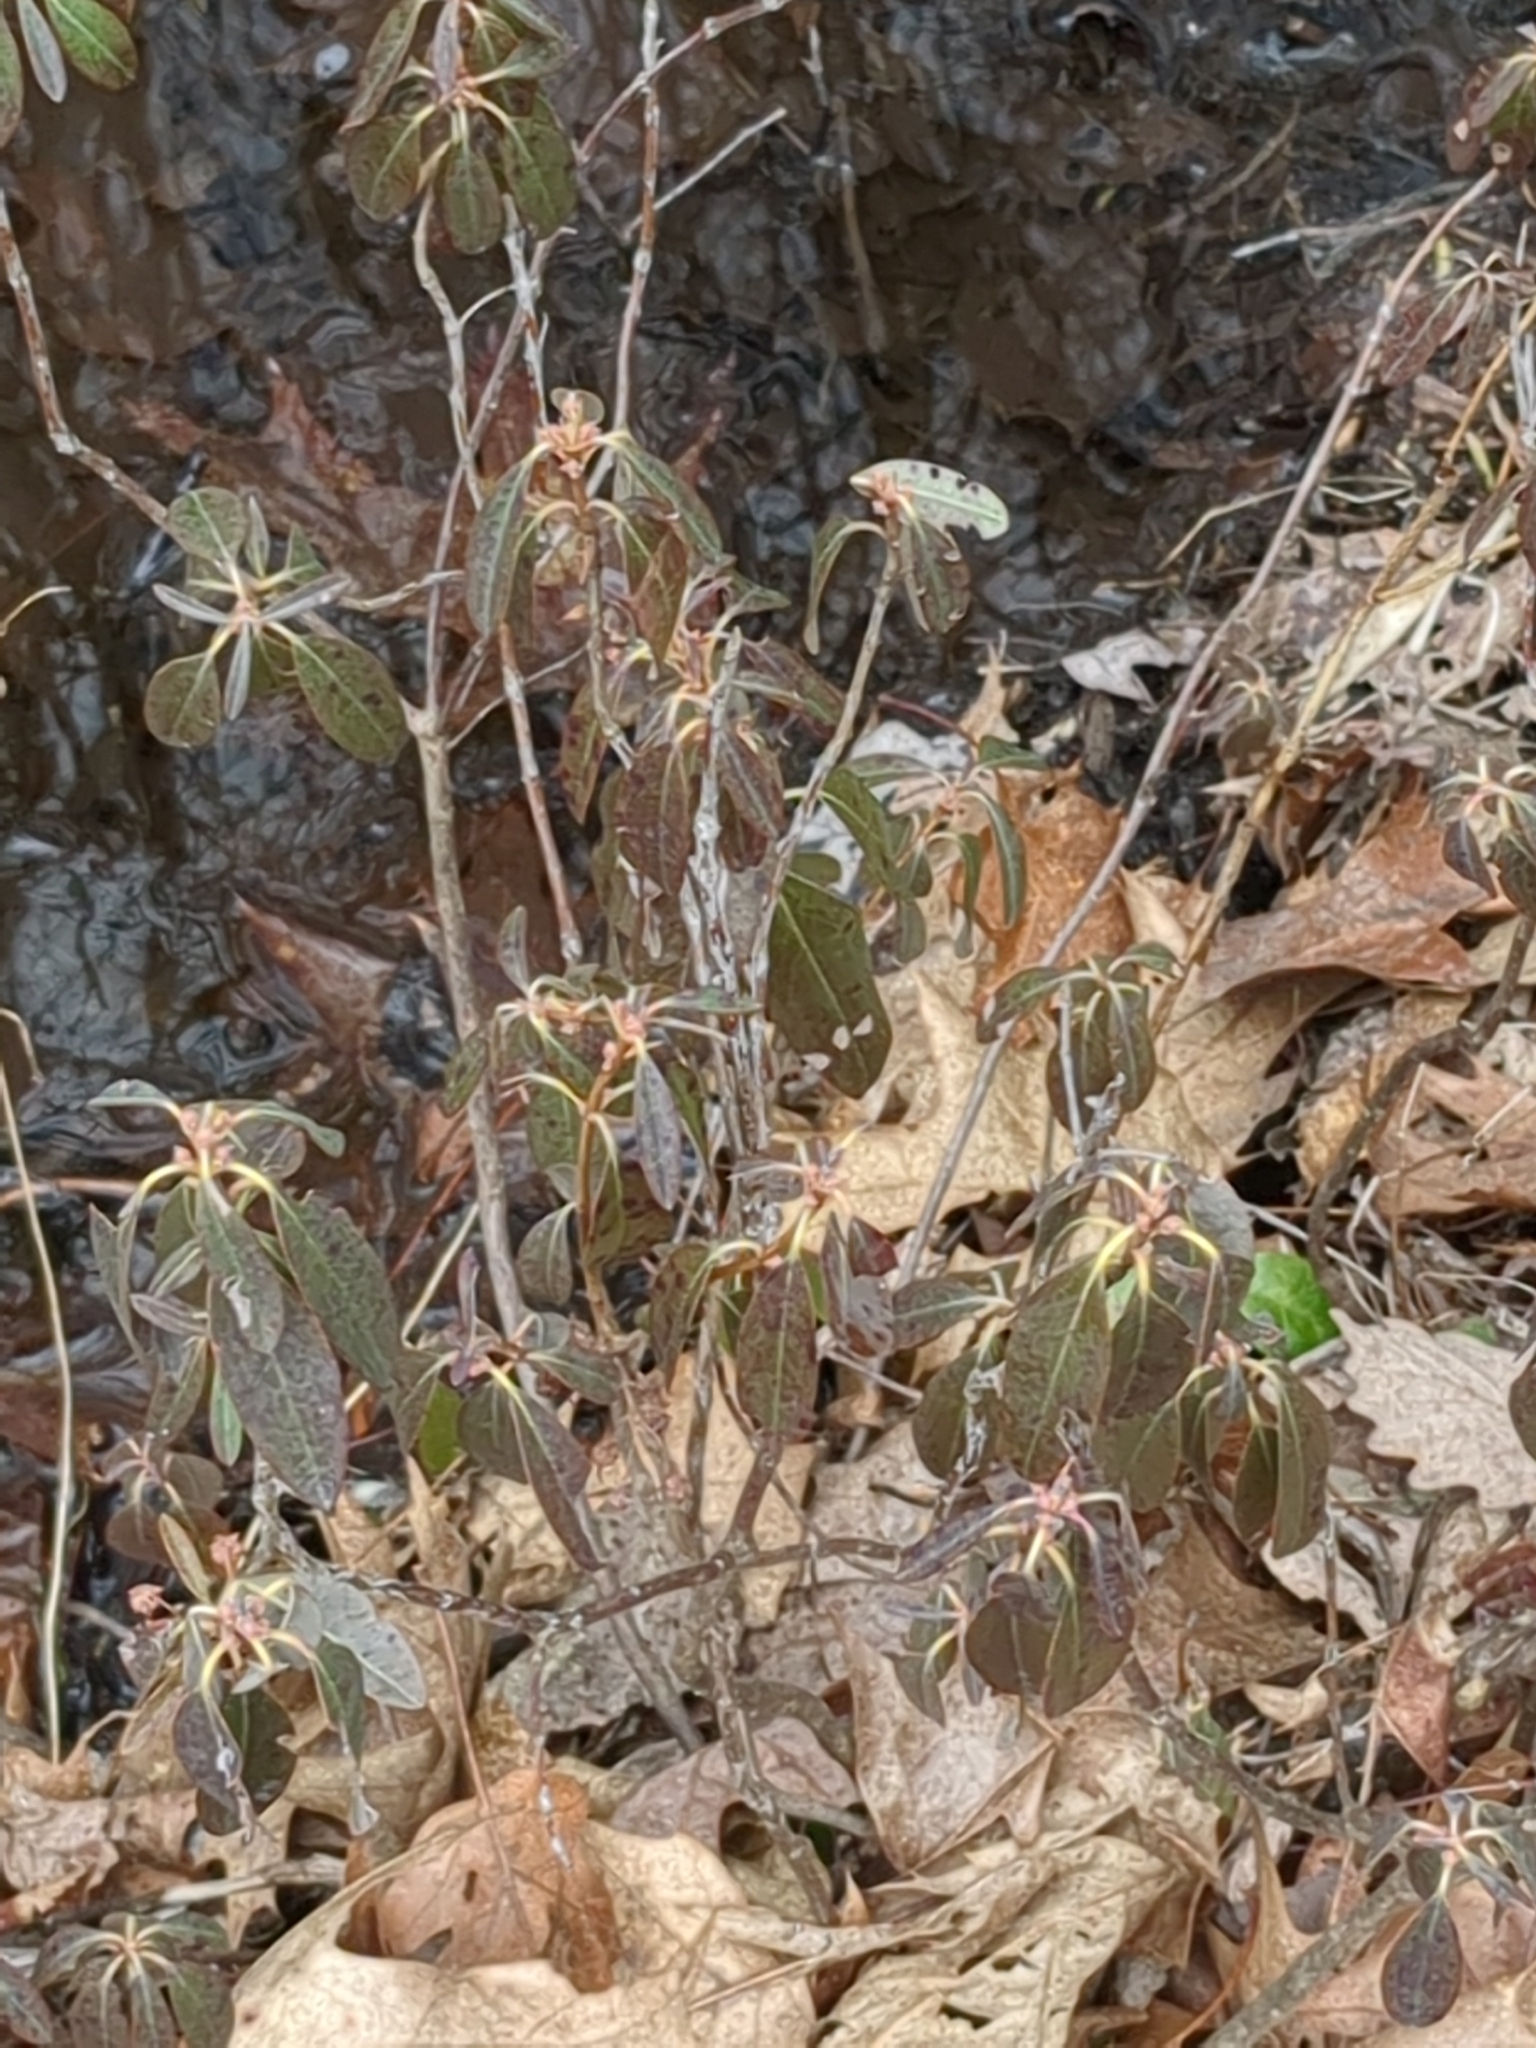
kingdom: Plantae
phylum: Tracheophyta
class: Magnoliopsida
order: Ericales
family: Ericaceae
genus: Kalmia
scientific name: Kalmia angustifolia
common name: Sheep-laurel
